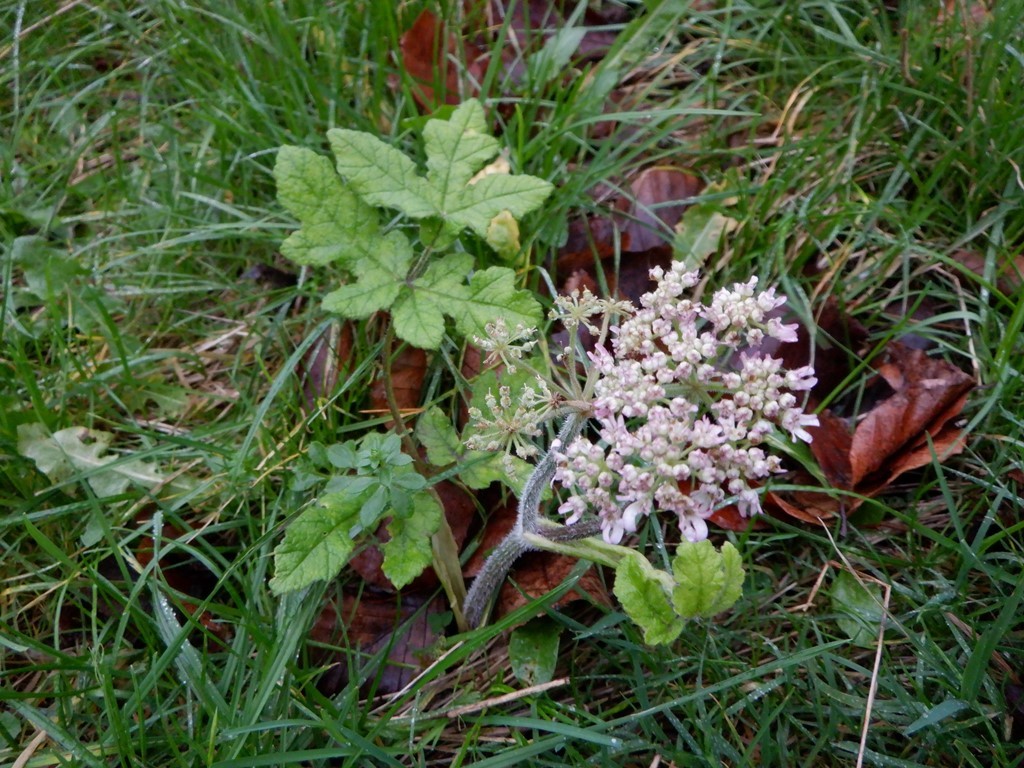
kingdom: Plantae
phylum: Tracheophyta
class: Magnoliopsida
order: Apiales
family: Apiaceae
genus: Heracleum
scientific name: Heracleum sphondylium
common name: Hogweed
